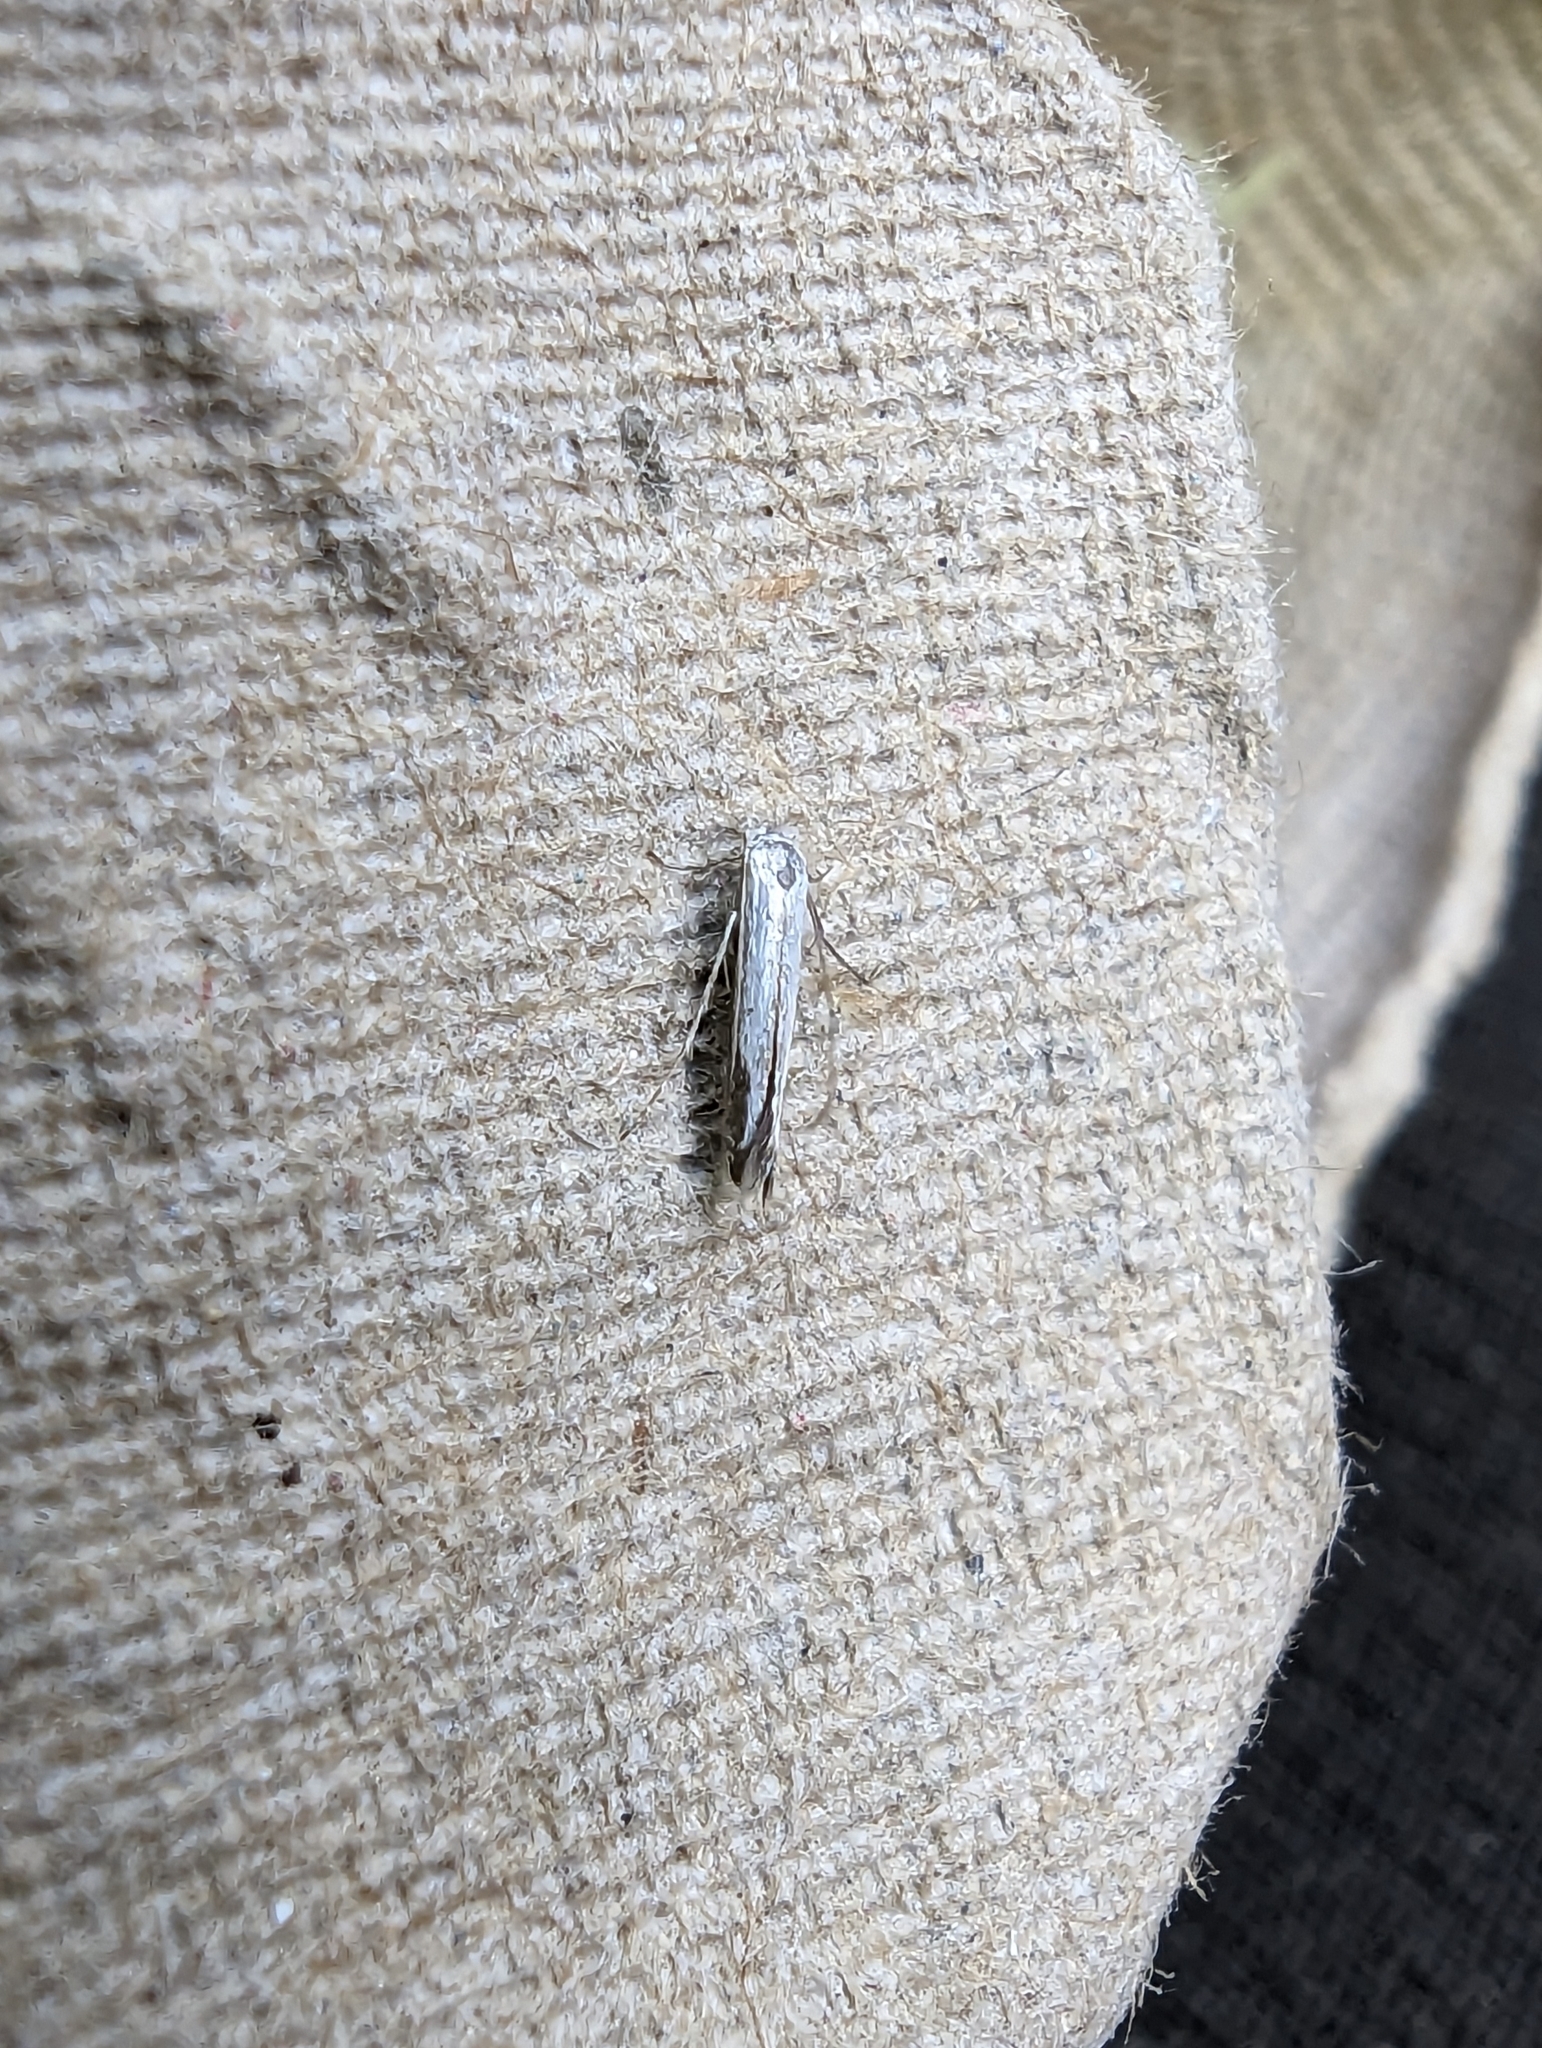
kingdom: Animalia
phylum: Arthropoda
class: Insecta
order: Lepidoptera
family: Lyonetiidae
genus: Lyonetia
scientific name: Lyonetia clerkella
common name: Apple leaf miner
